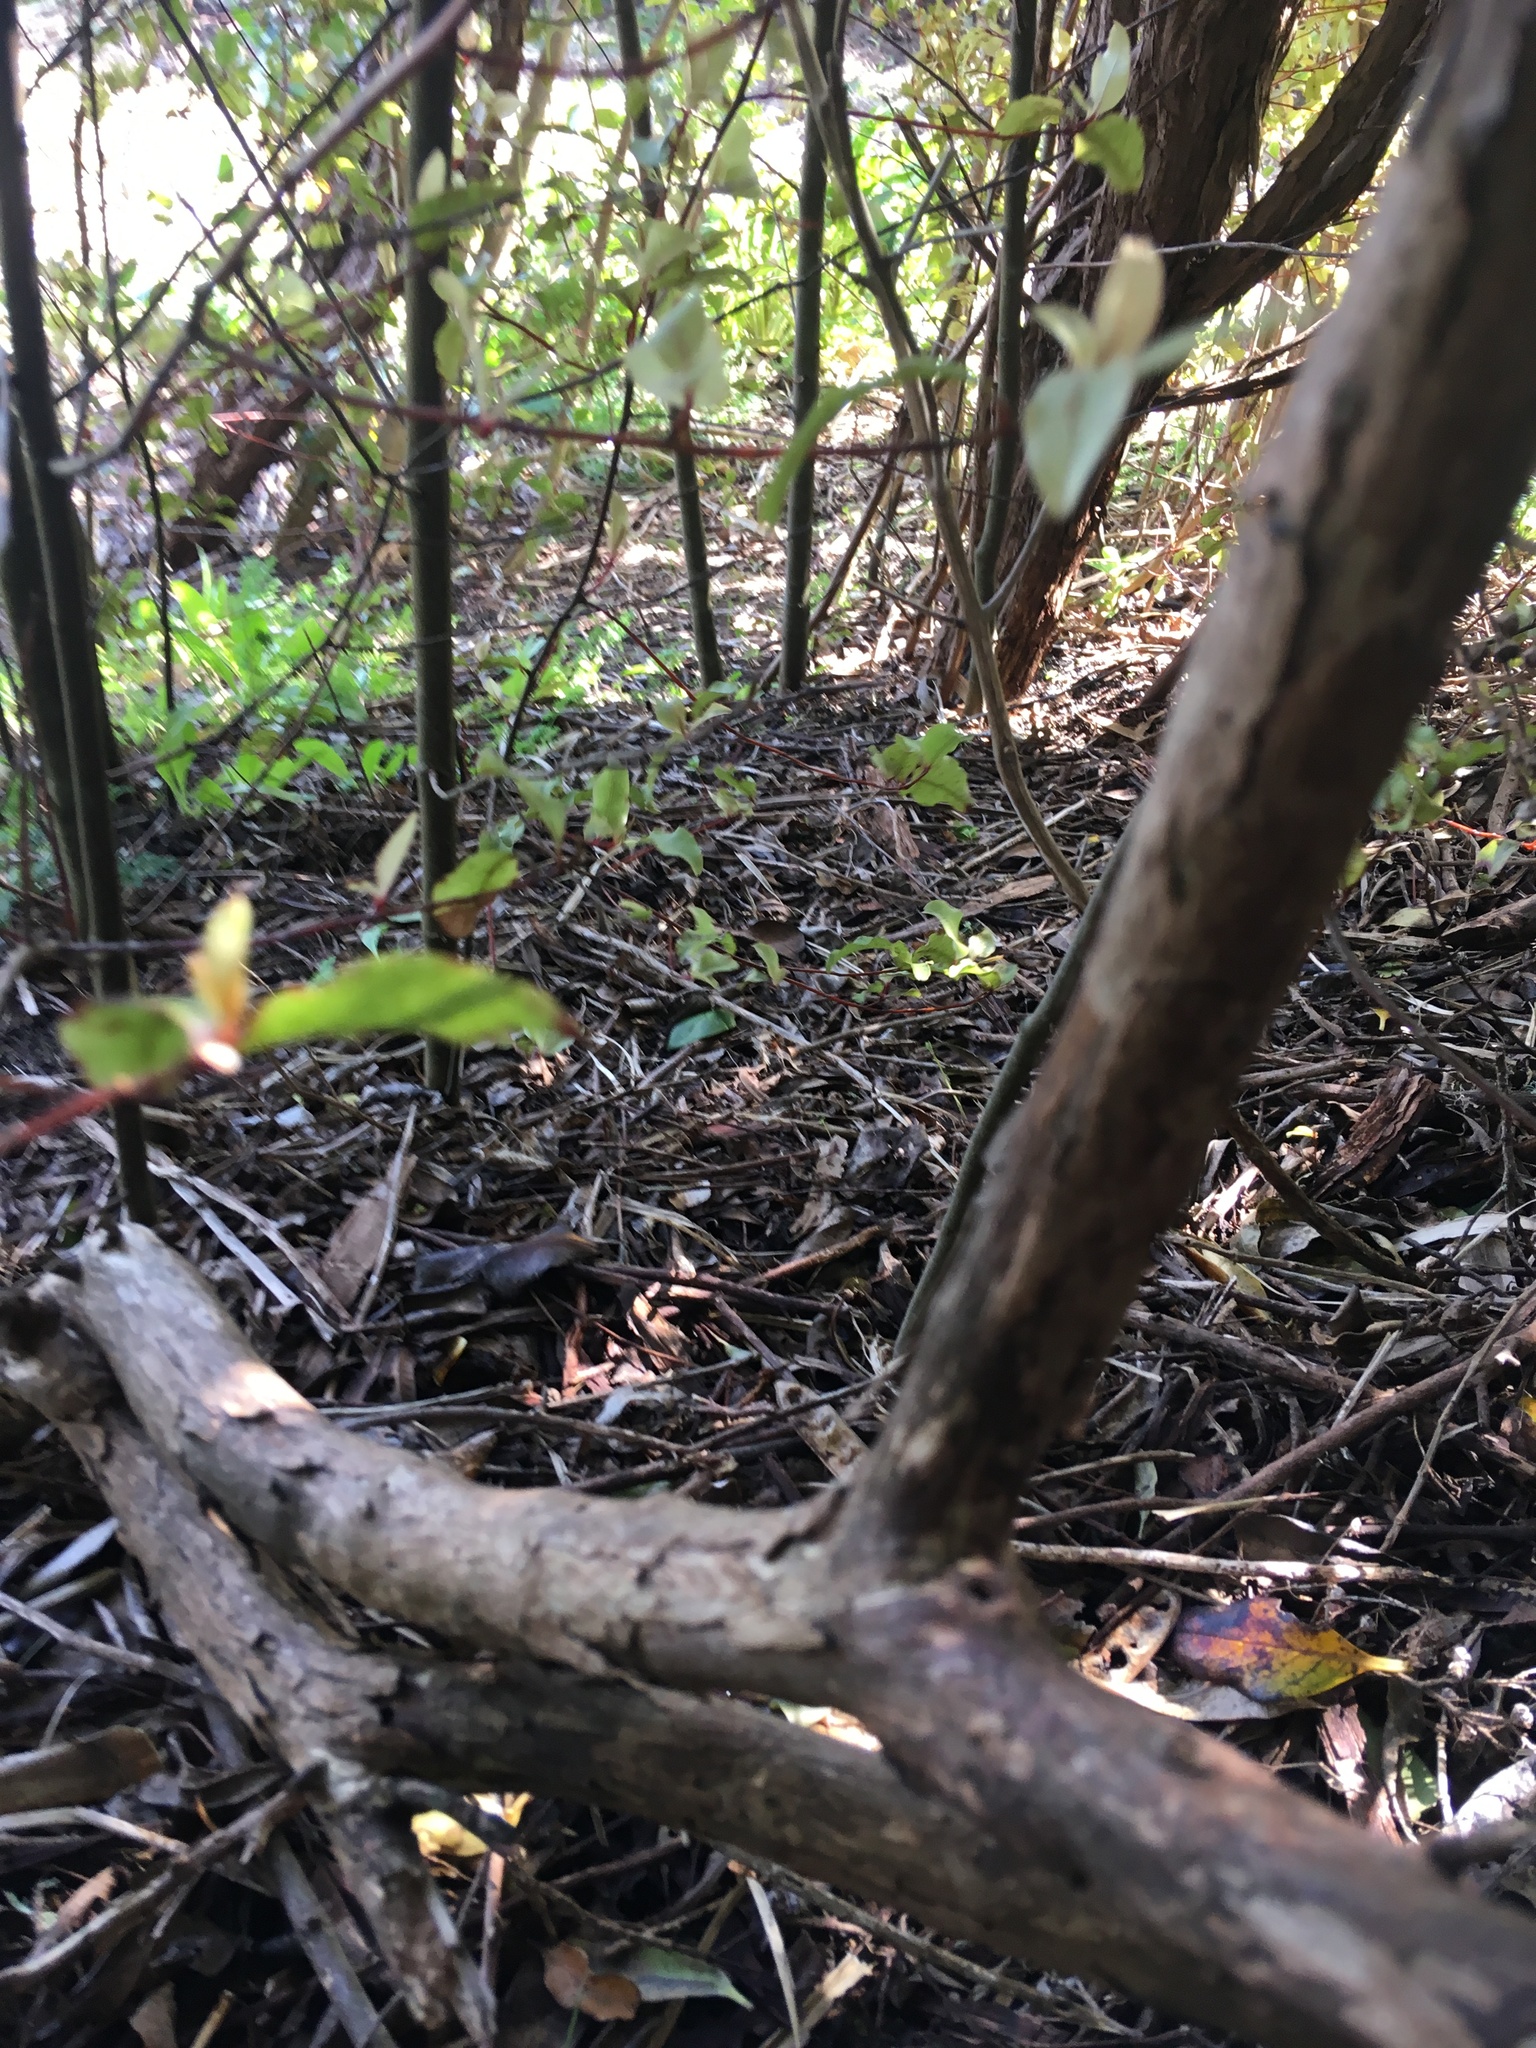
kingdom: Plantae
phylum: Tracheophyta
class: Magnoliopsida
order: Lamiales
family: Oleaceae
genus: Ligustrum
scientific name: Ligustrum lucidum
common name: Glossy privet
